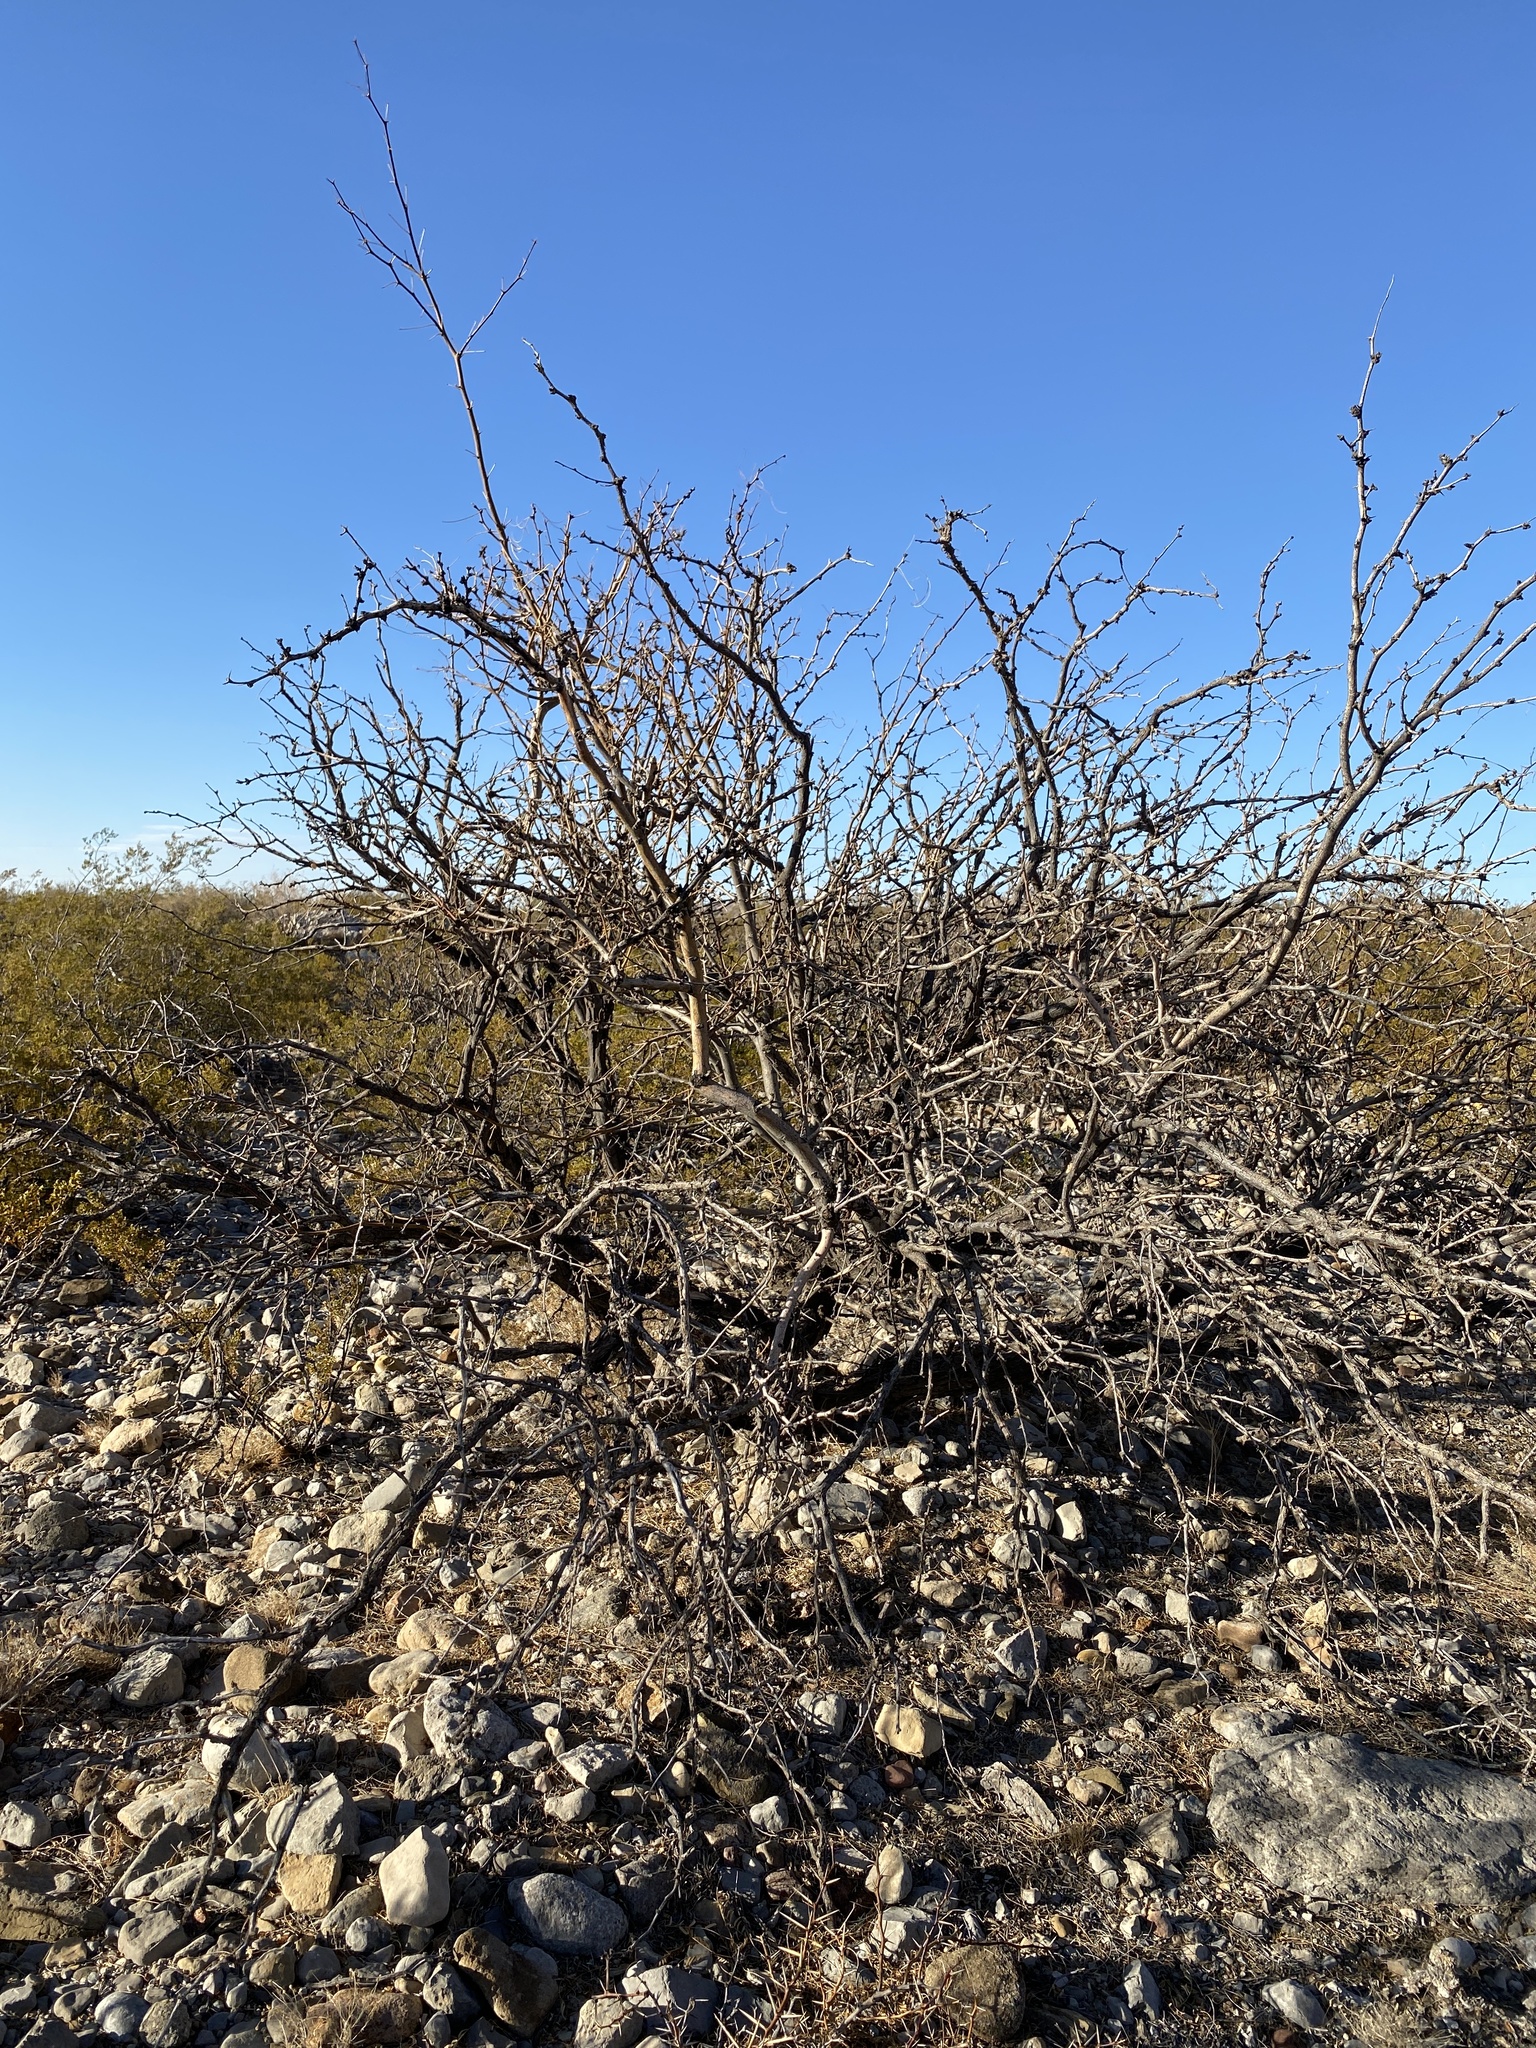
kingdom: Plantae
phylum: Tracheophyta
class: Magnoliopsida
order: Fabales
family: Fabaceae
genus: Prosopis
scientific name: Prosopis glandulosa
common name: Honey mesquite
